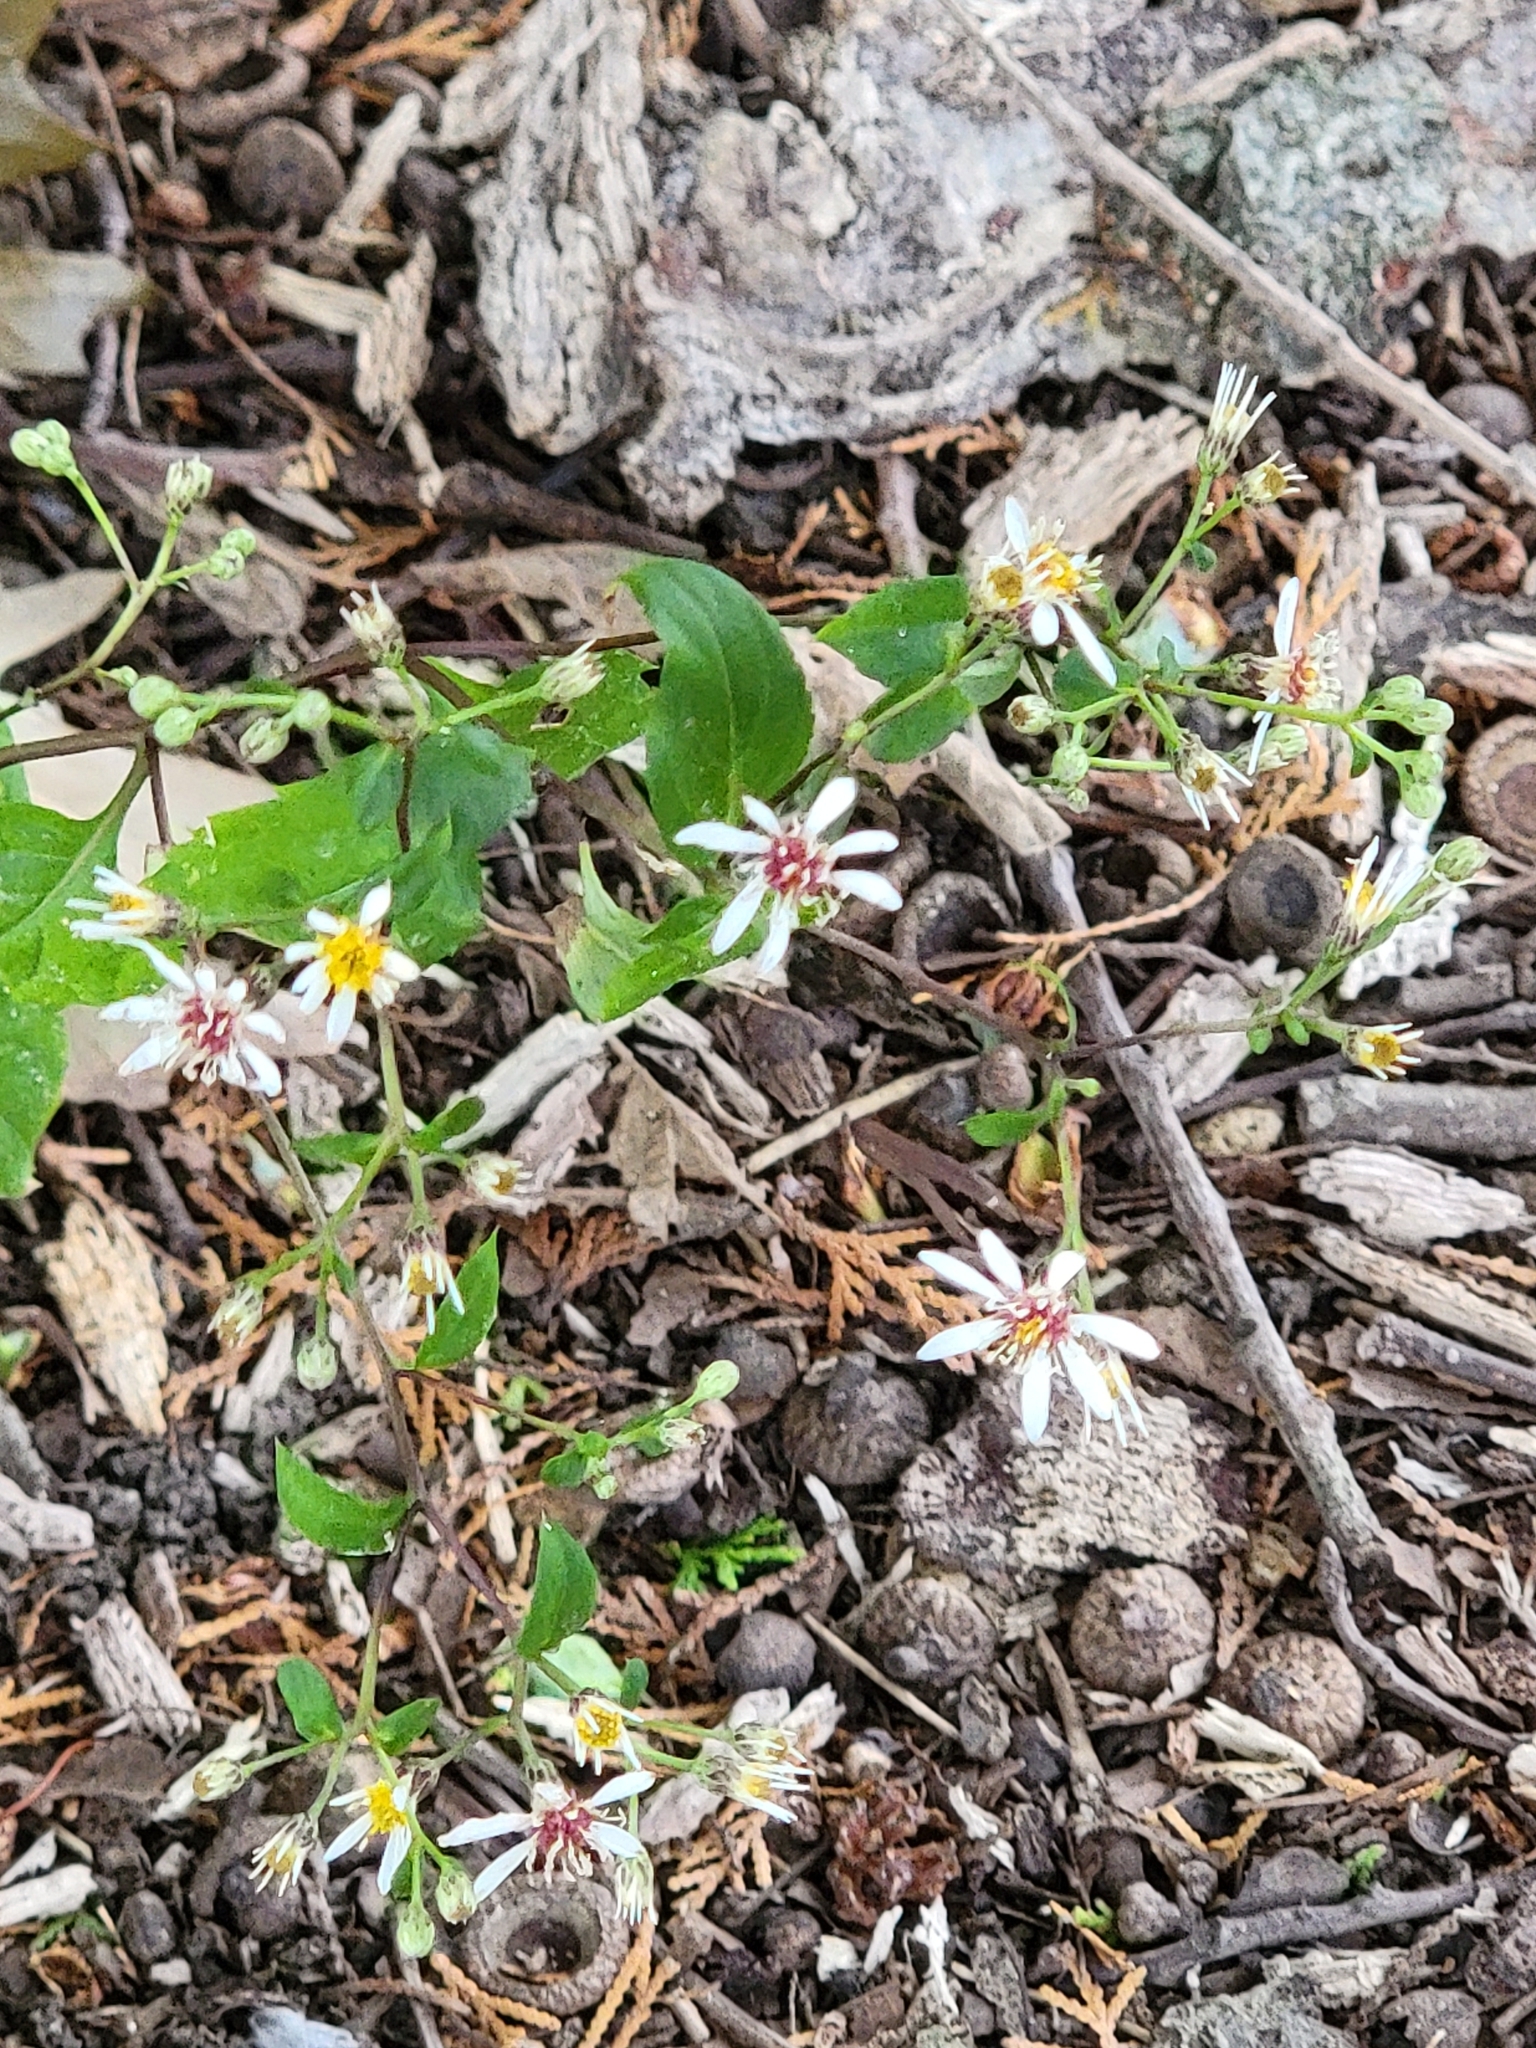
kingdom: Plantae
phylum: Tracheophyta
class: Magnoliopsida
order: Asterales
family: Asteraceae
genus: Eurybia
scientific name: Eurybia divaricata
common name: White wood aster
